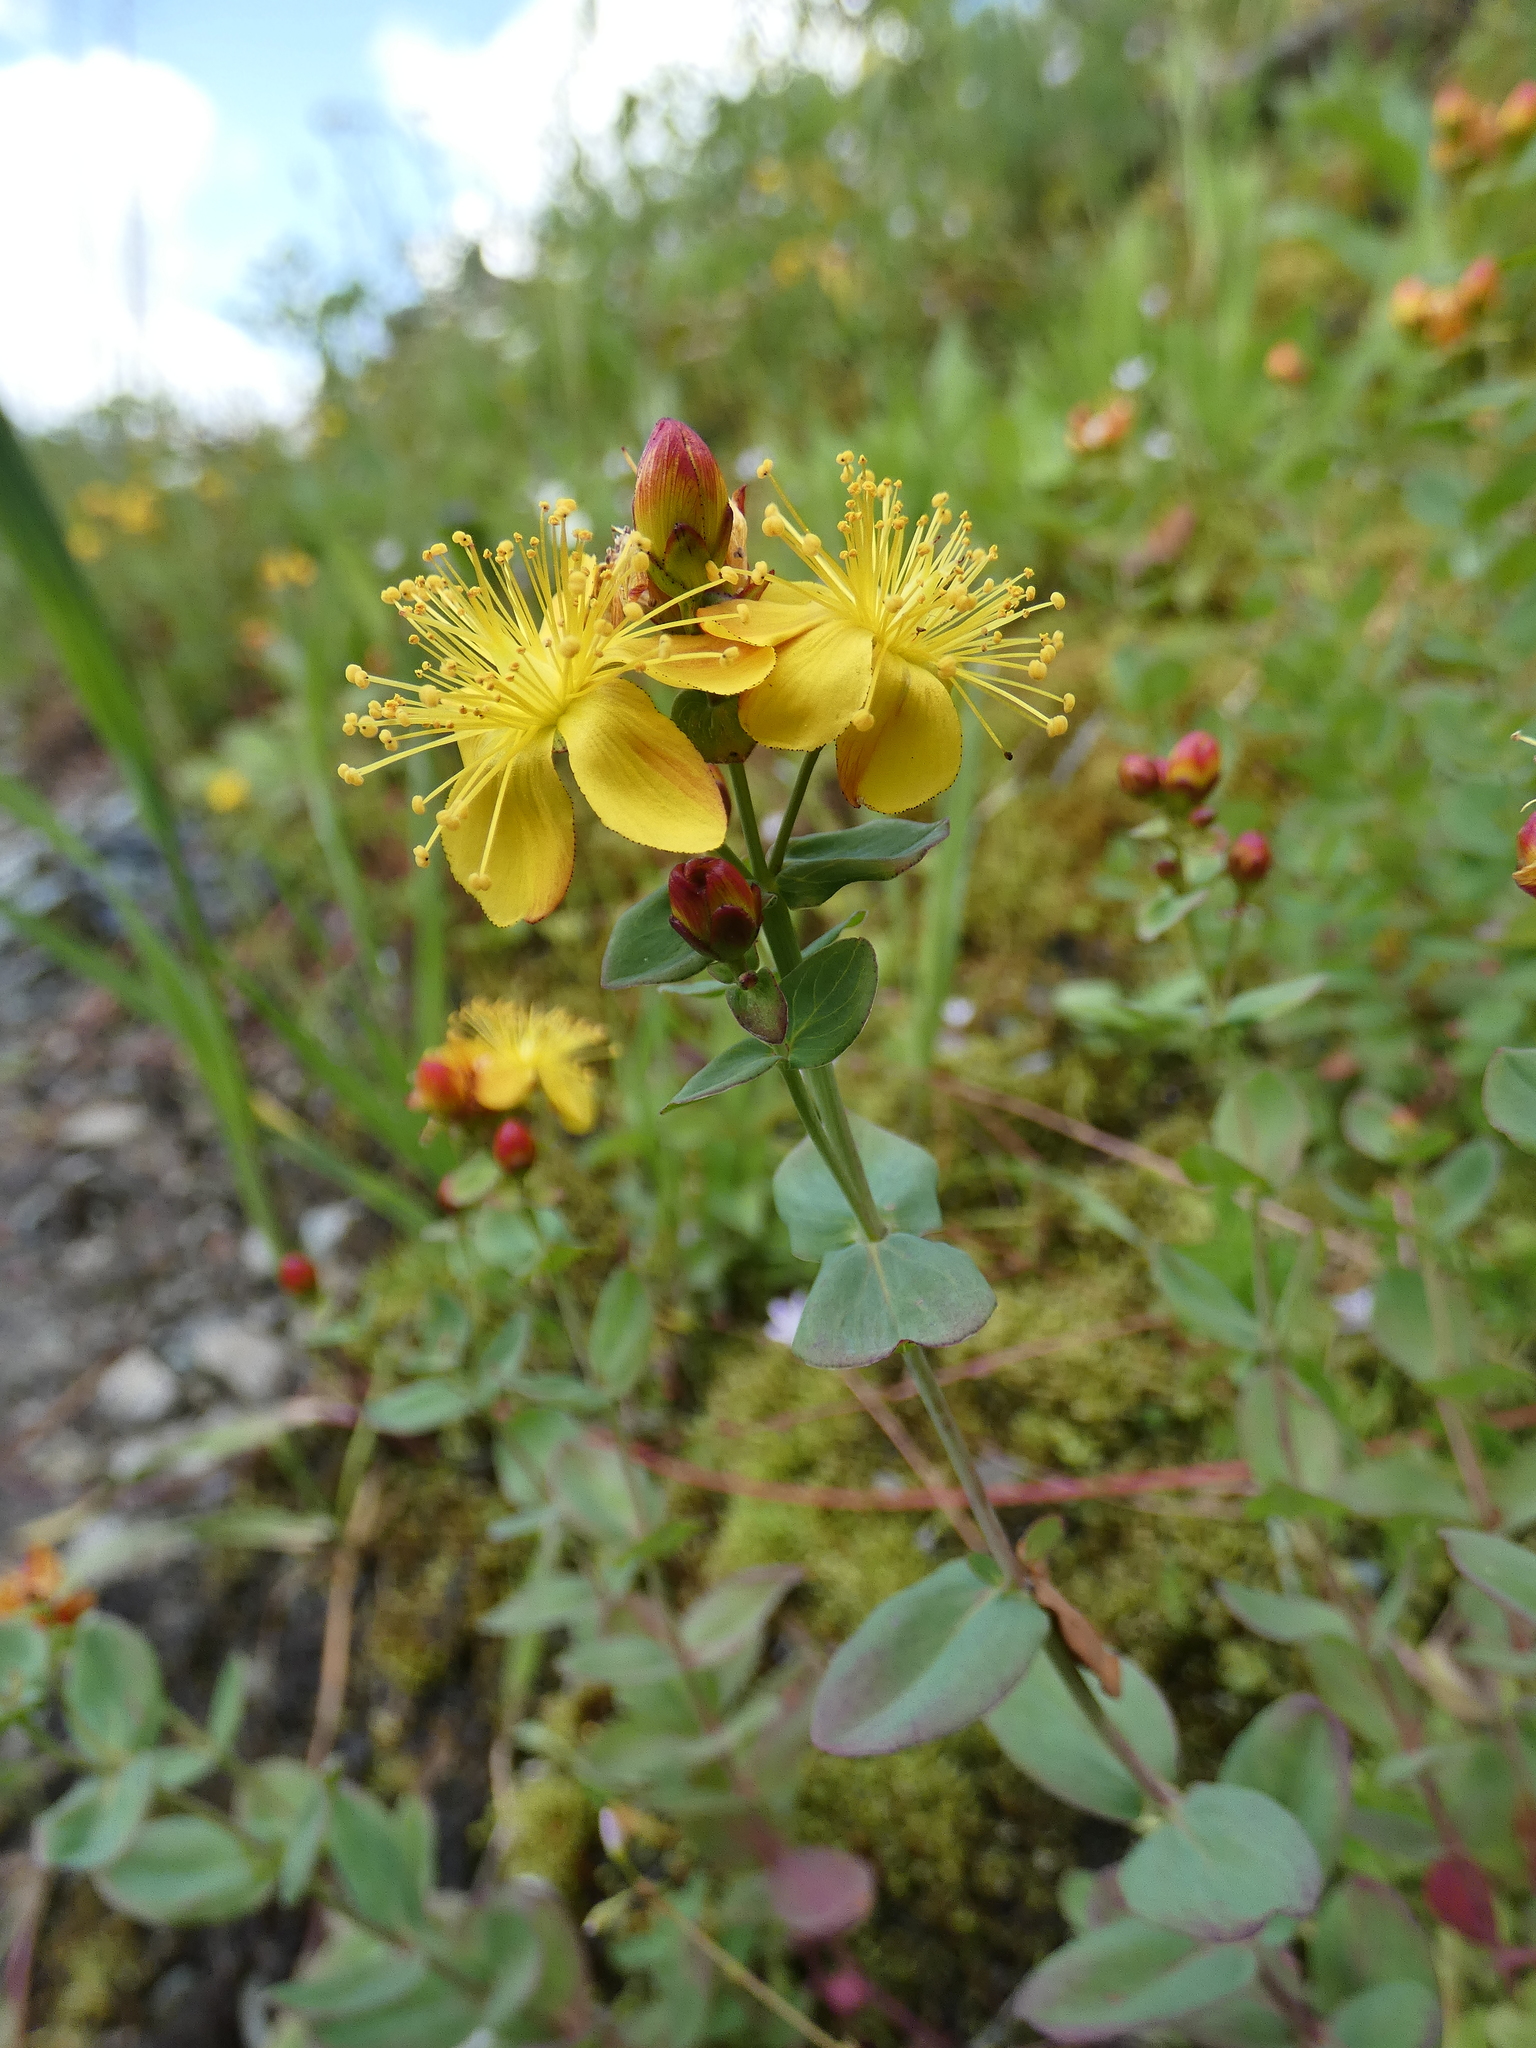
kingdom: Plantae
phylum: Tracheophyta
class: Magnoliopsida
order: Malpighiales
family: Hypericaceae
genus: Hypericum
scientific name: Hypericum scouleri
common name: Scouler's st. john's-wort
